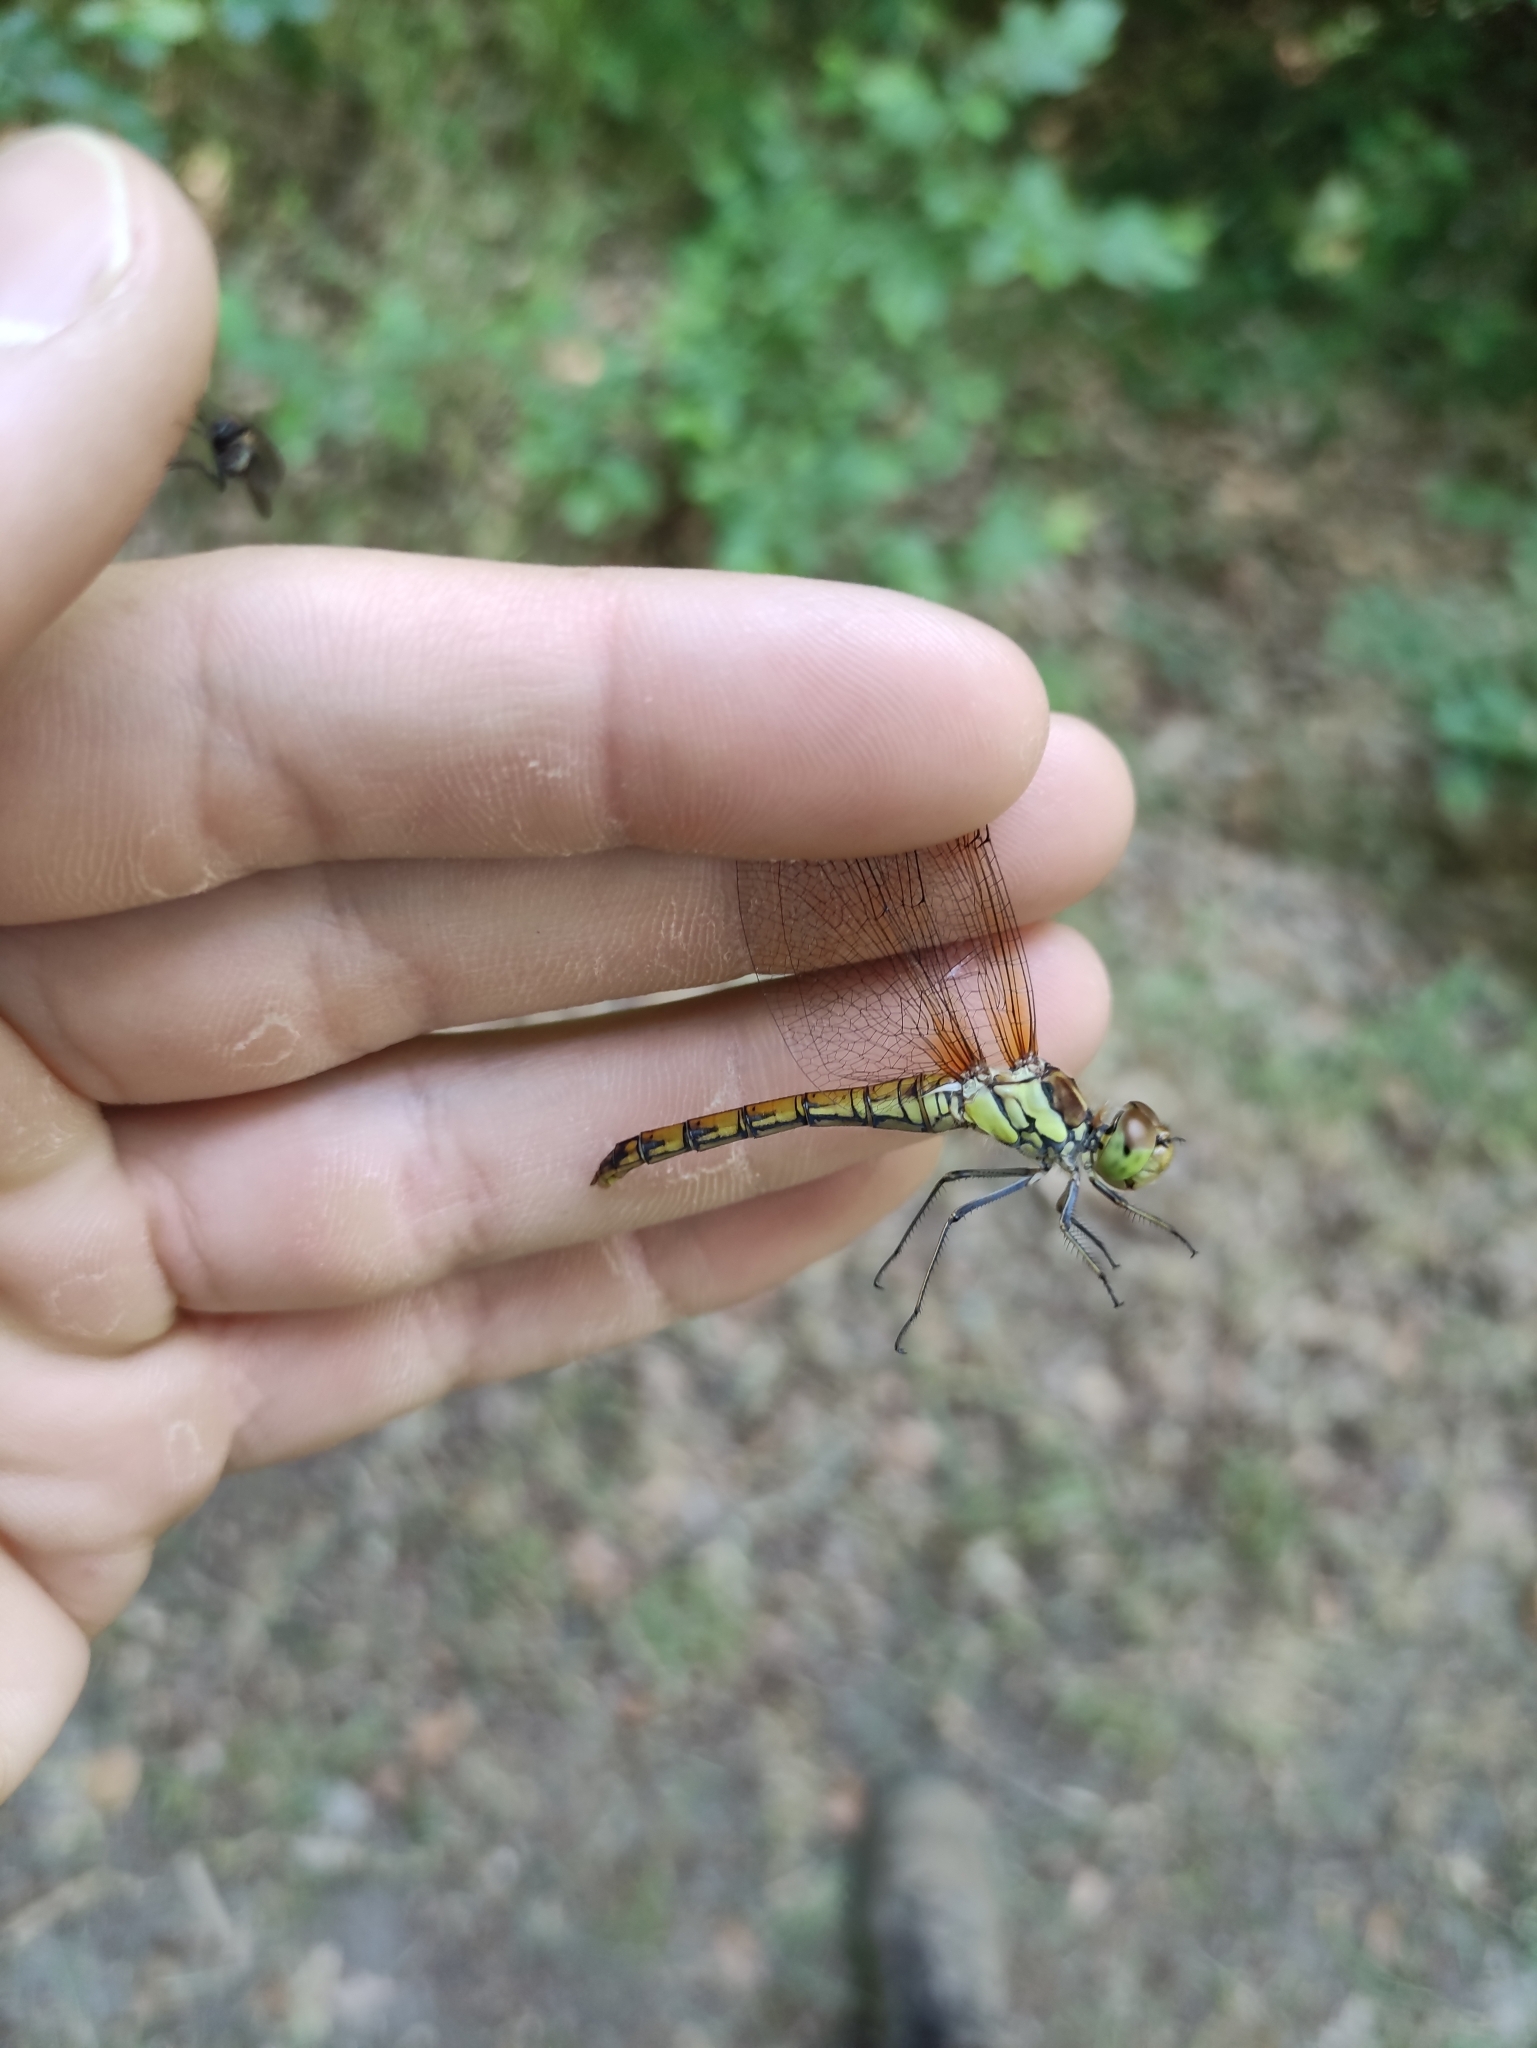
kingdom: Animalia
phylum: Arthropoda
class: Insecta
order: Odonata
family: Libellulidae
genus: Sympetrum
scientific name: Sympetrum striolatum
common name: Common darter
